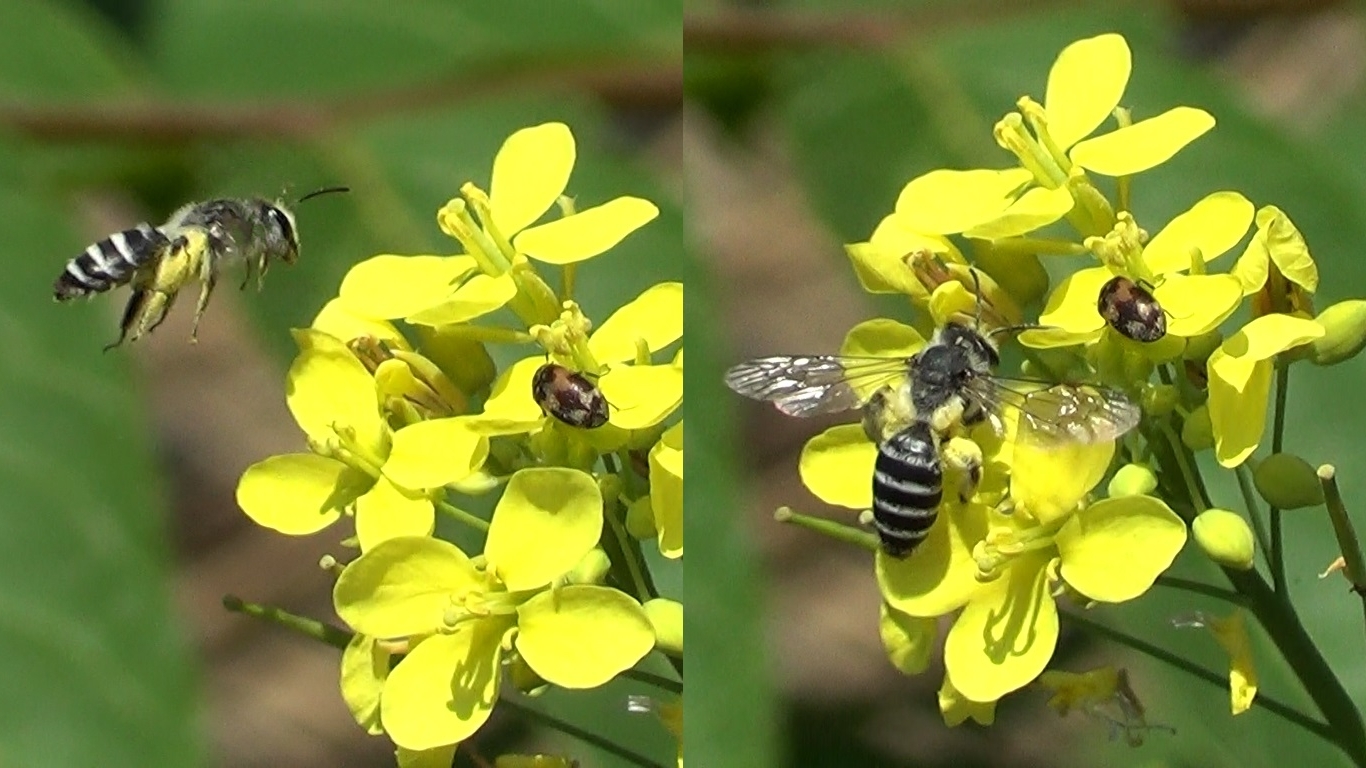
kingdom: Animalia
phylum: Arthropoda
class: Insecta
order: Hymenoptera
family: Andrenidae
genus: Andrena
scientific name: Andrena vetula
